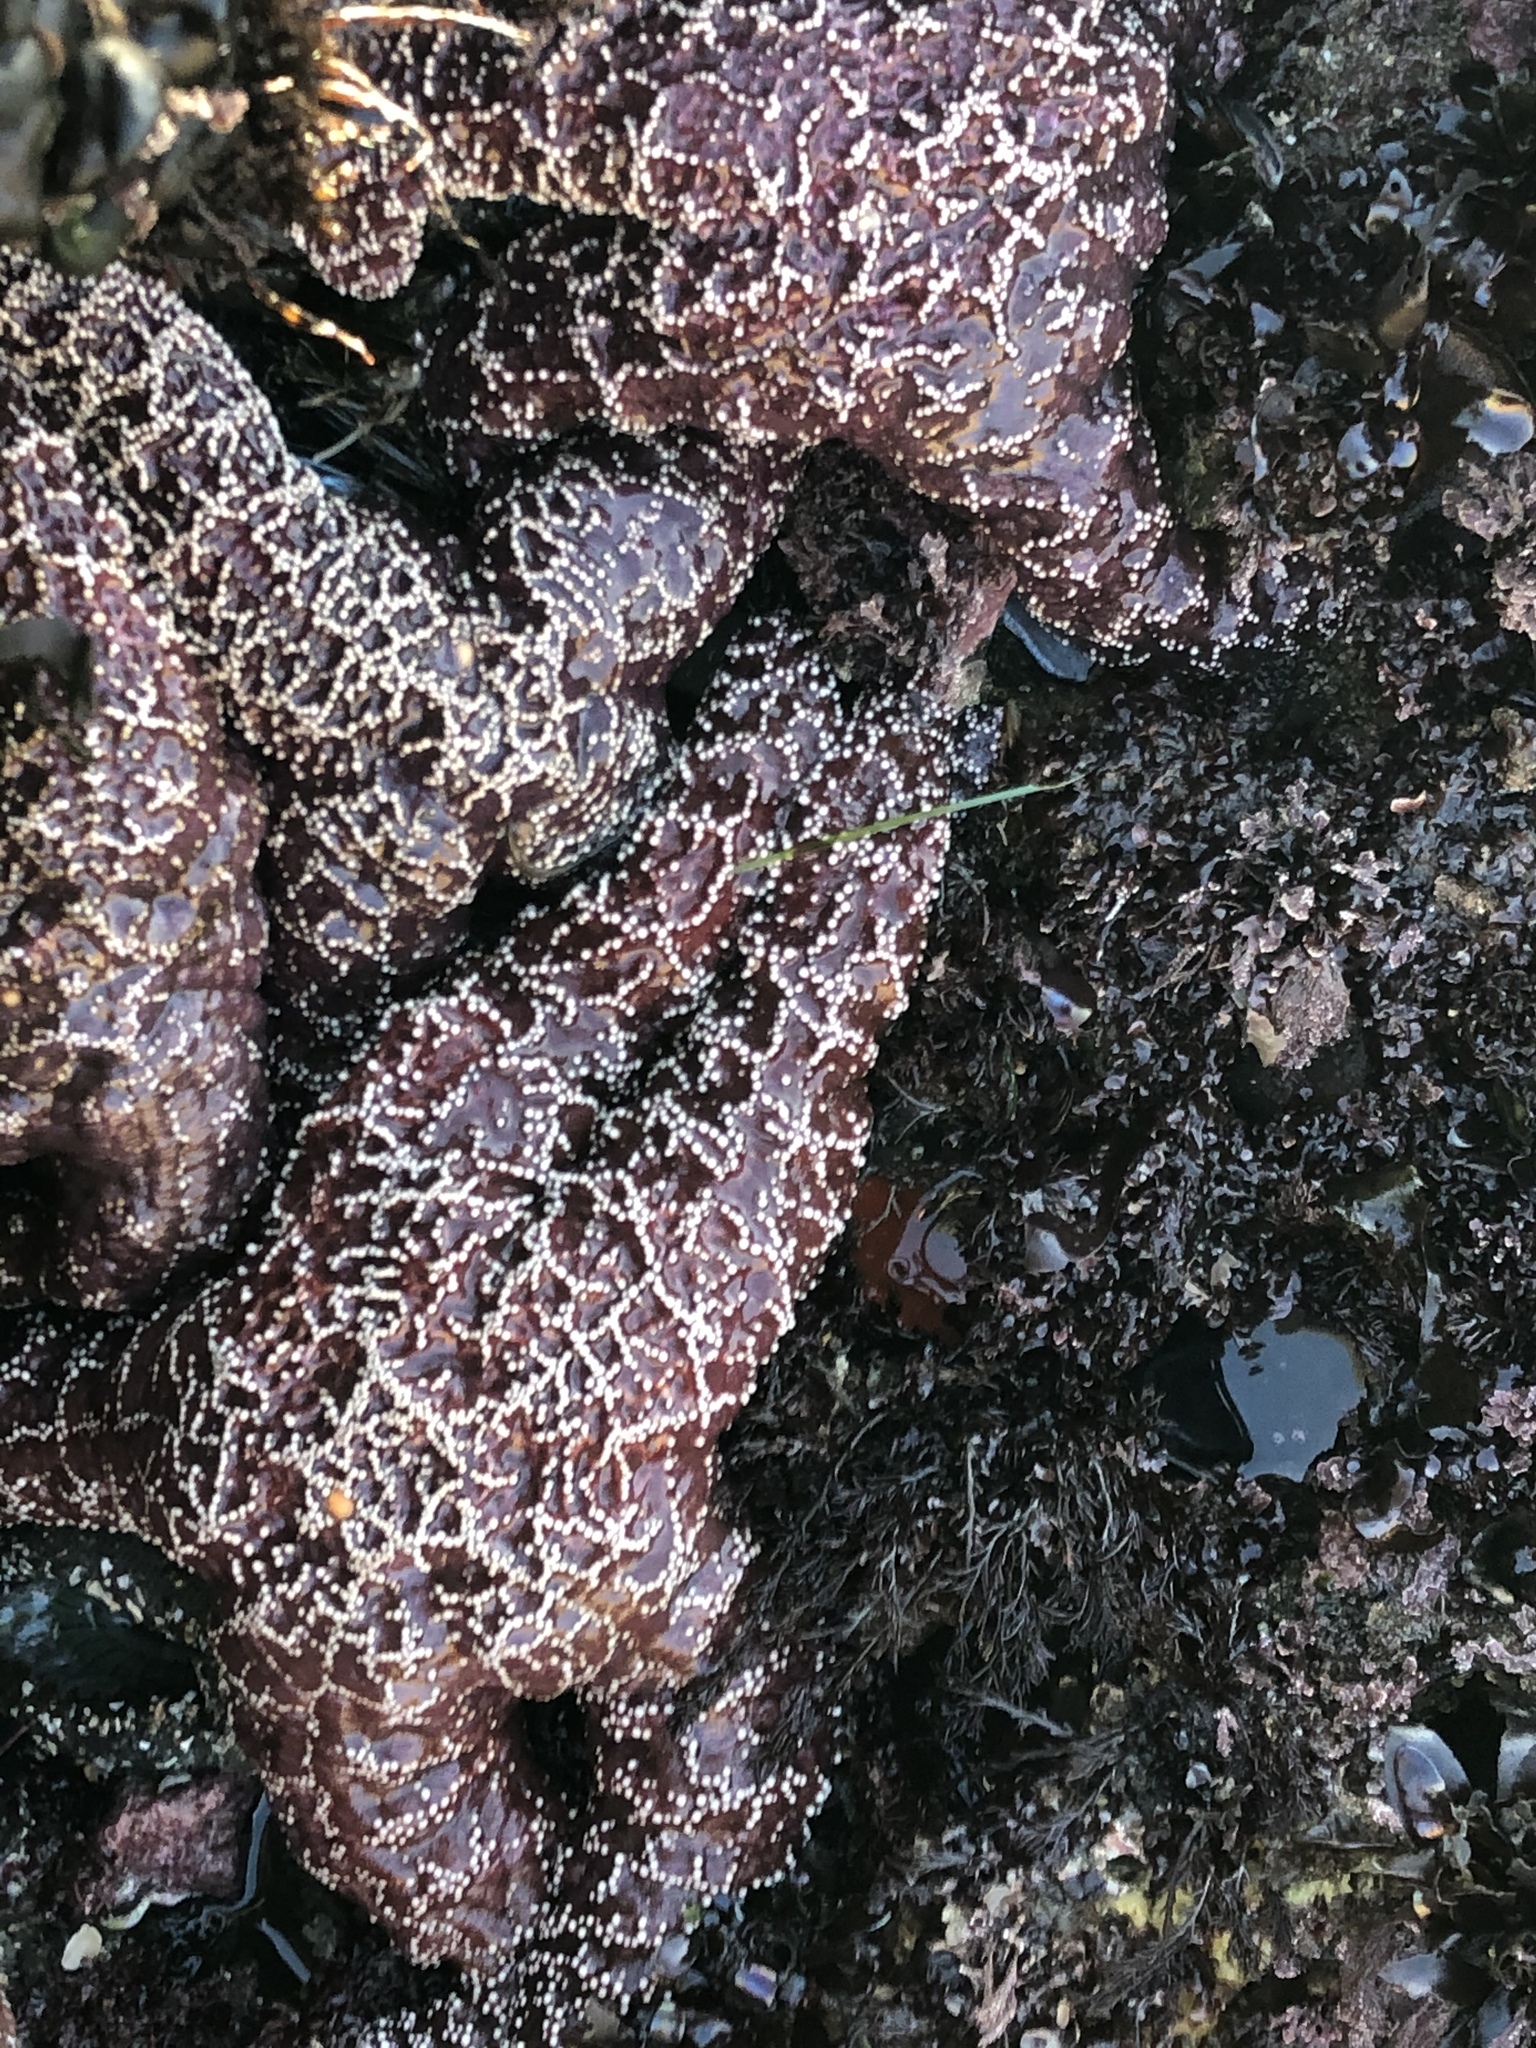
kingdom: Animalia
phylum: Echinodermata
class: Asteroidea
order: Forcipulatida
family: Asteriidae
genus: Pisaster
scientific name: Pisaster ochraceus
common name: Ochre stars
